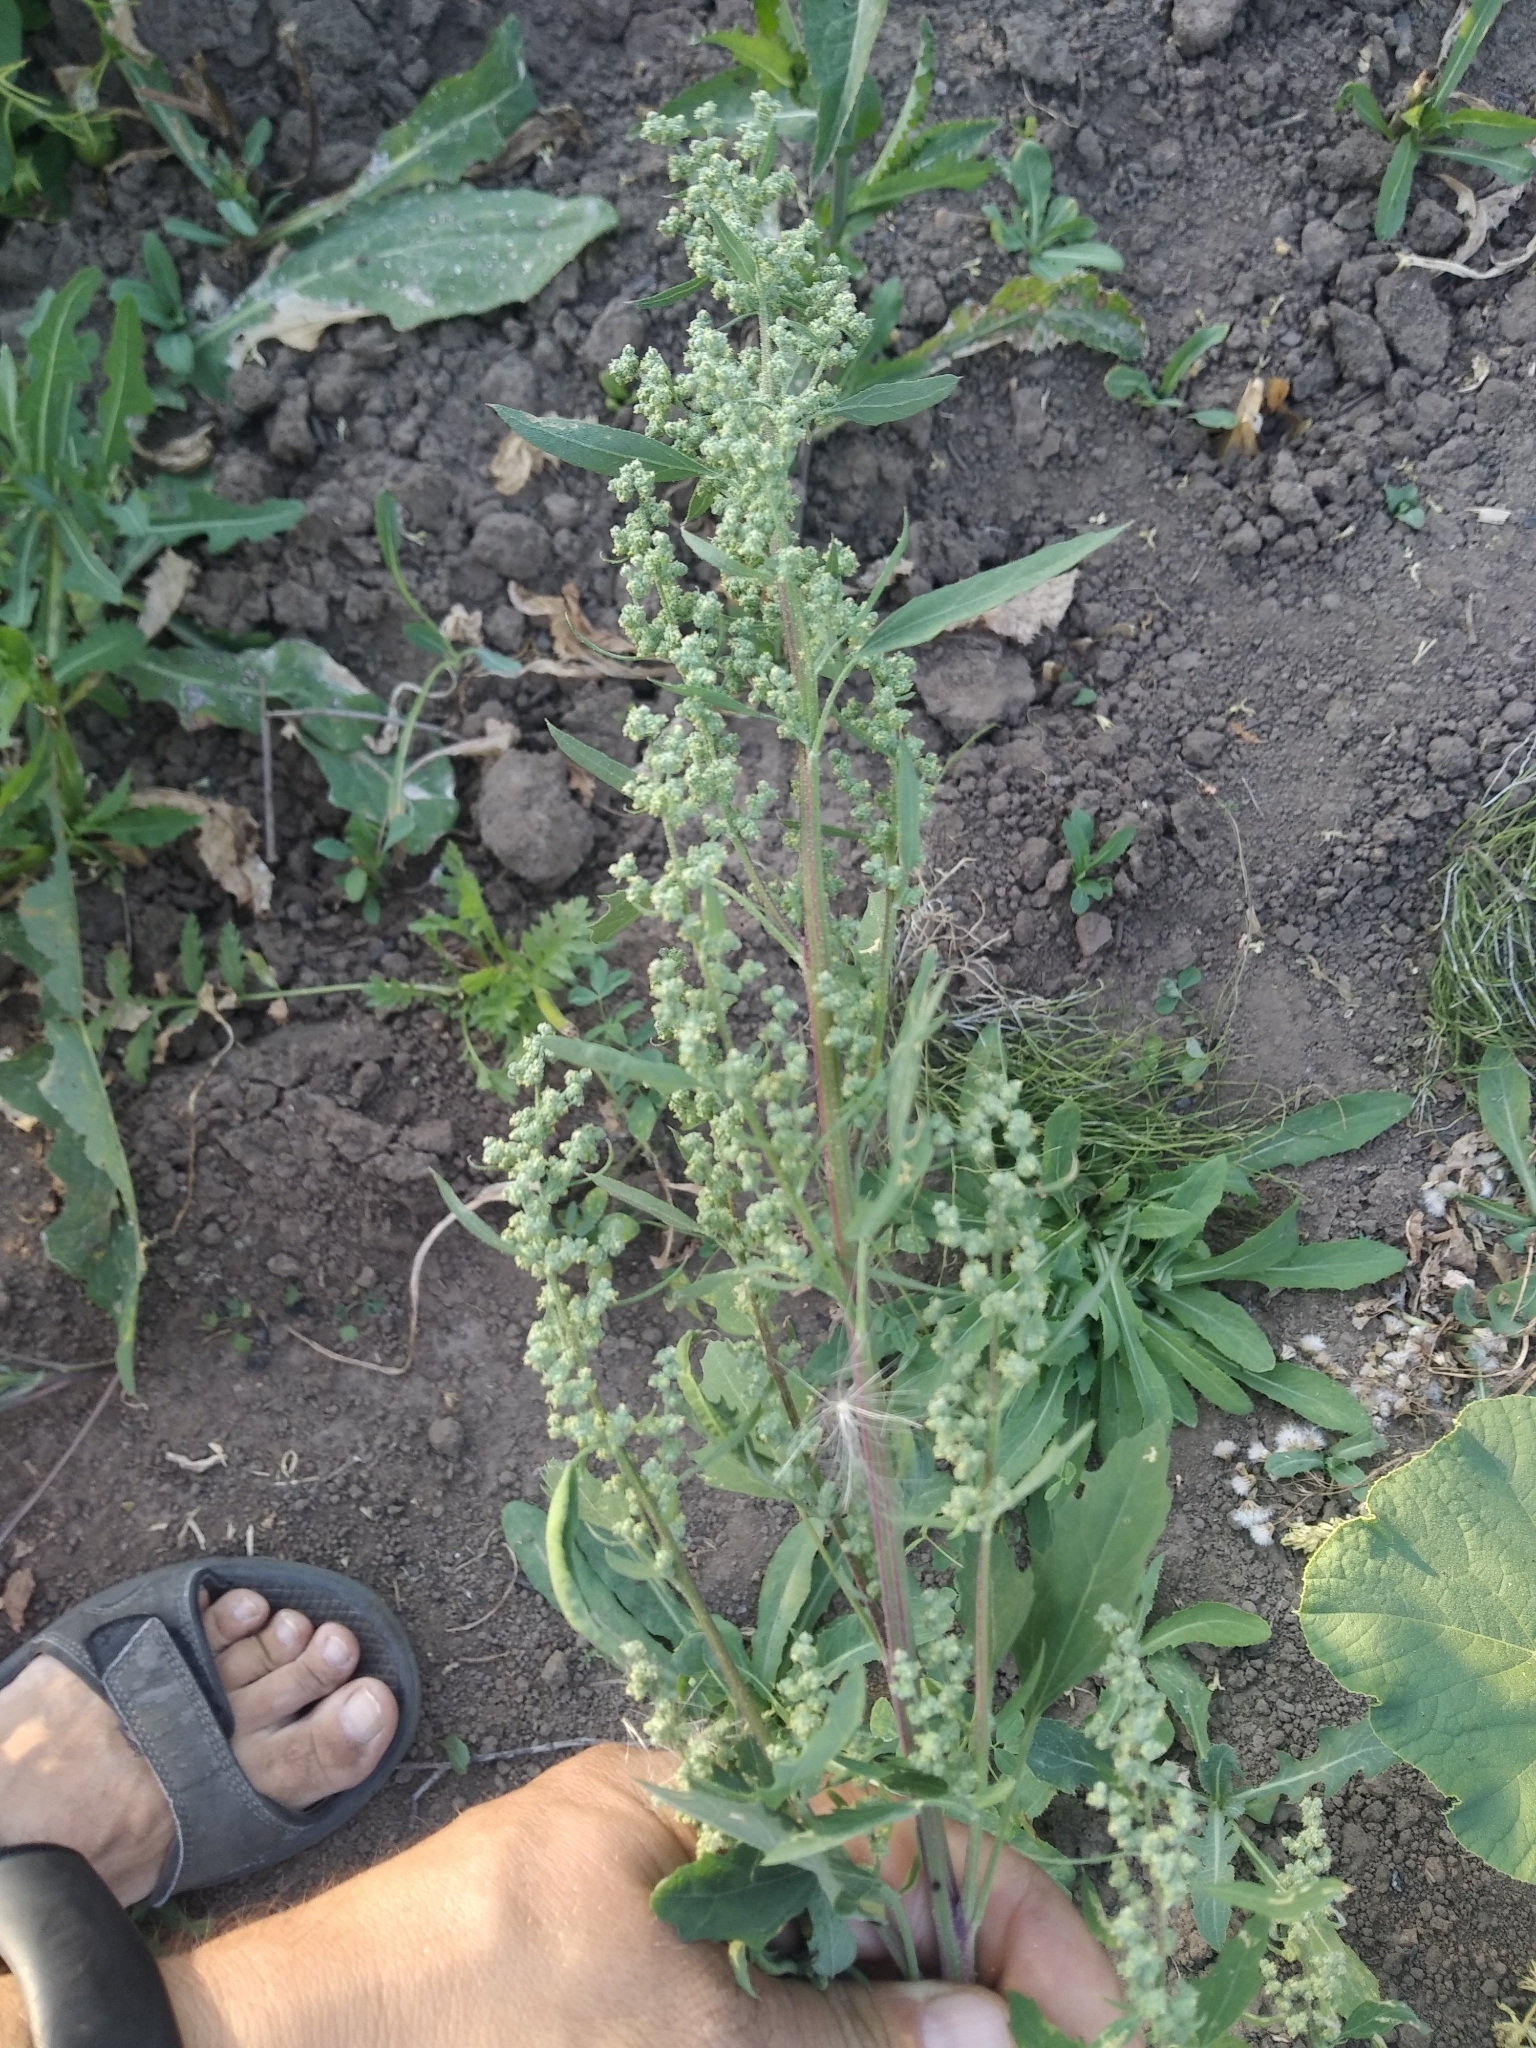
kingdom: Plantae
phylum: Tracheophyta
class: Magnoliopsida
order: Caryophyllales
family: Amaranthaceae
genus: Chenopodium
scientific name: Chenopodium album
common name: Fat-hen
